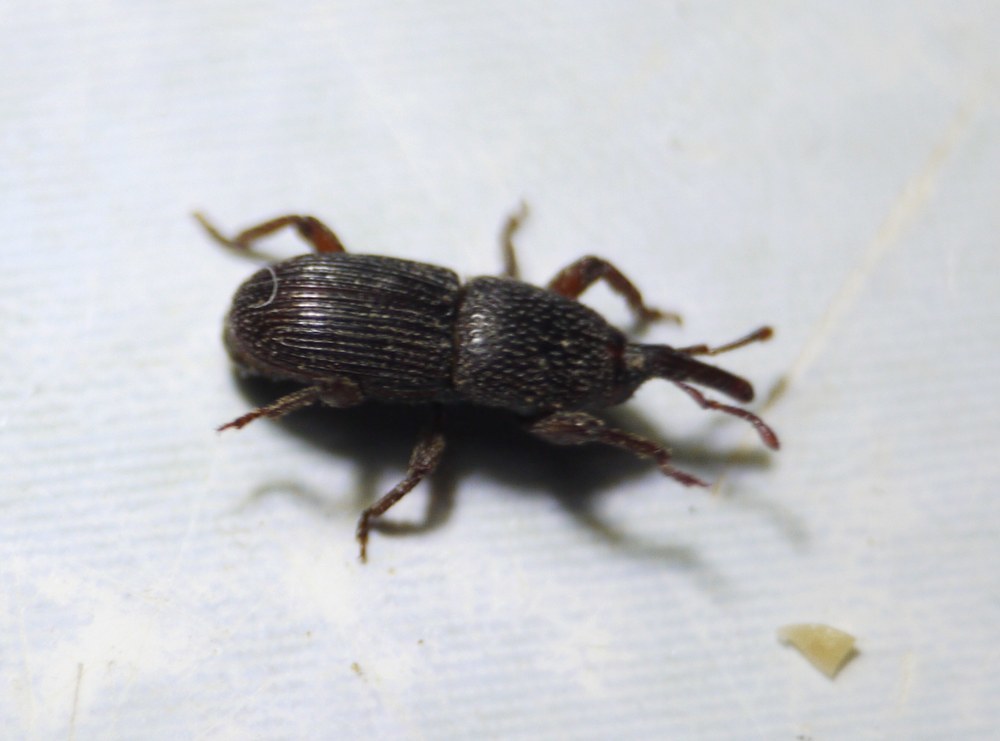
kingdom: Animalia
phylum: Arthropoda
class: Insecta
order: Coleoptera
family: Dryophthoridae
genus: Sitophilus
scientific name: Sitophilus granarius
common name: Granary weevil
